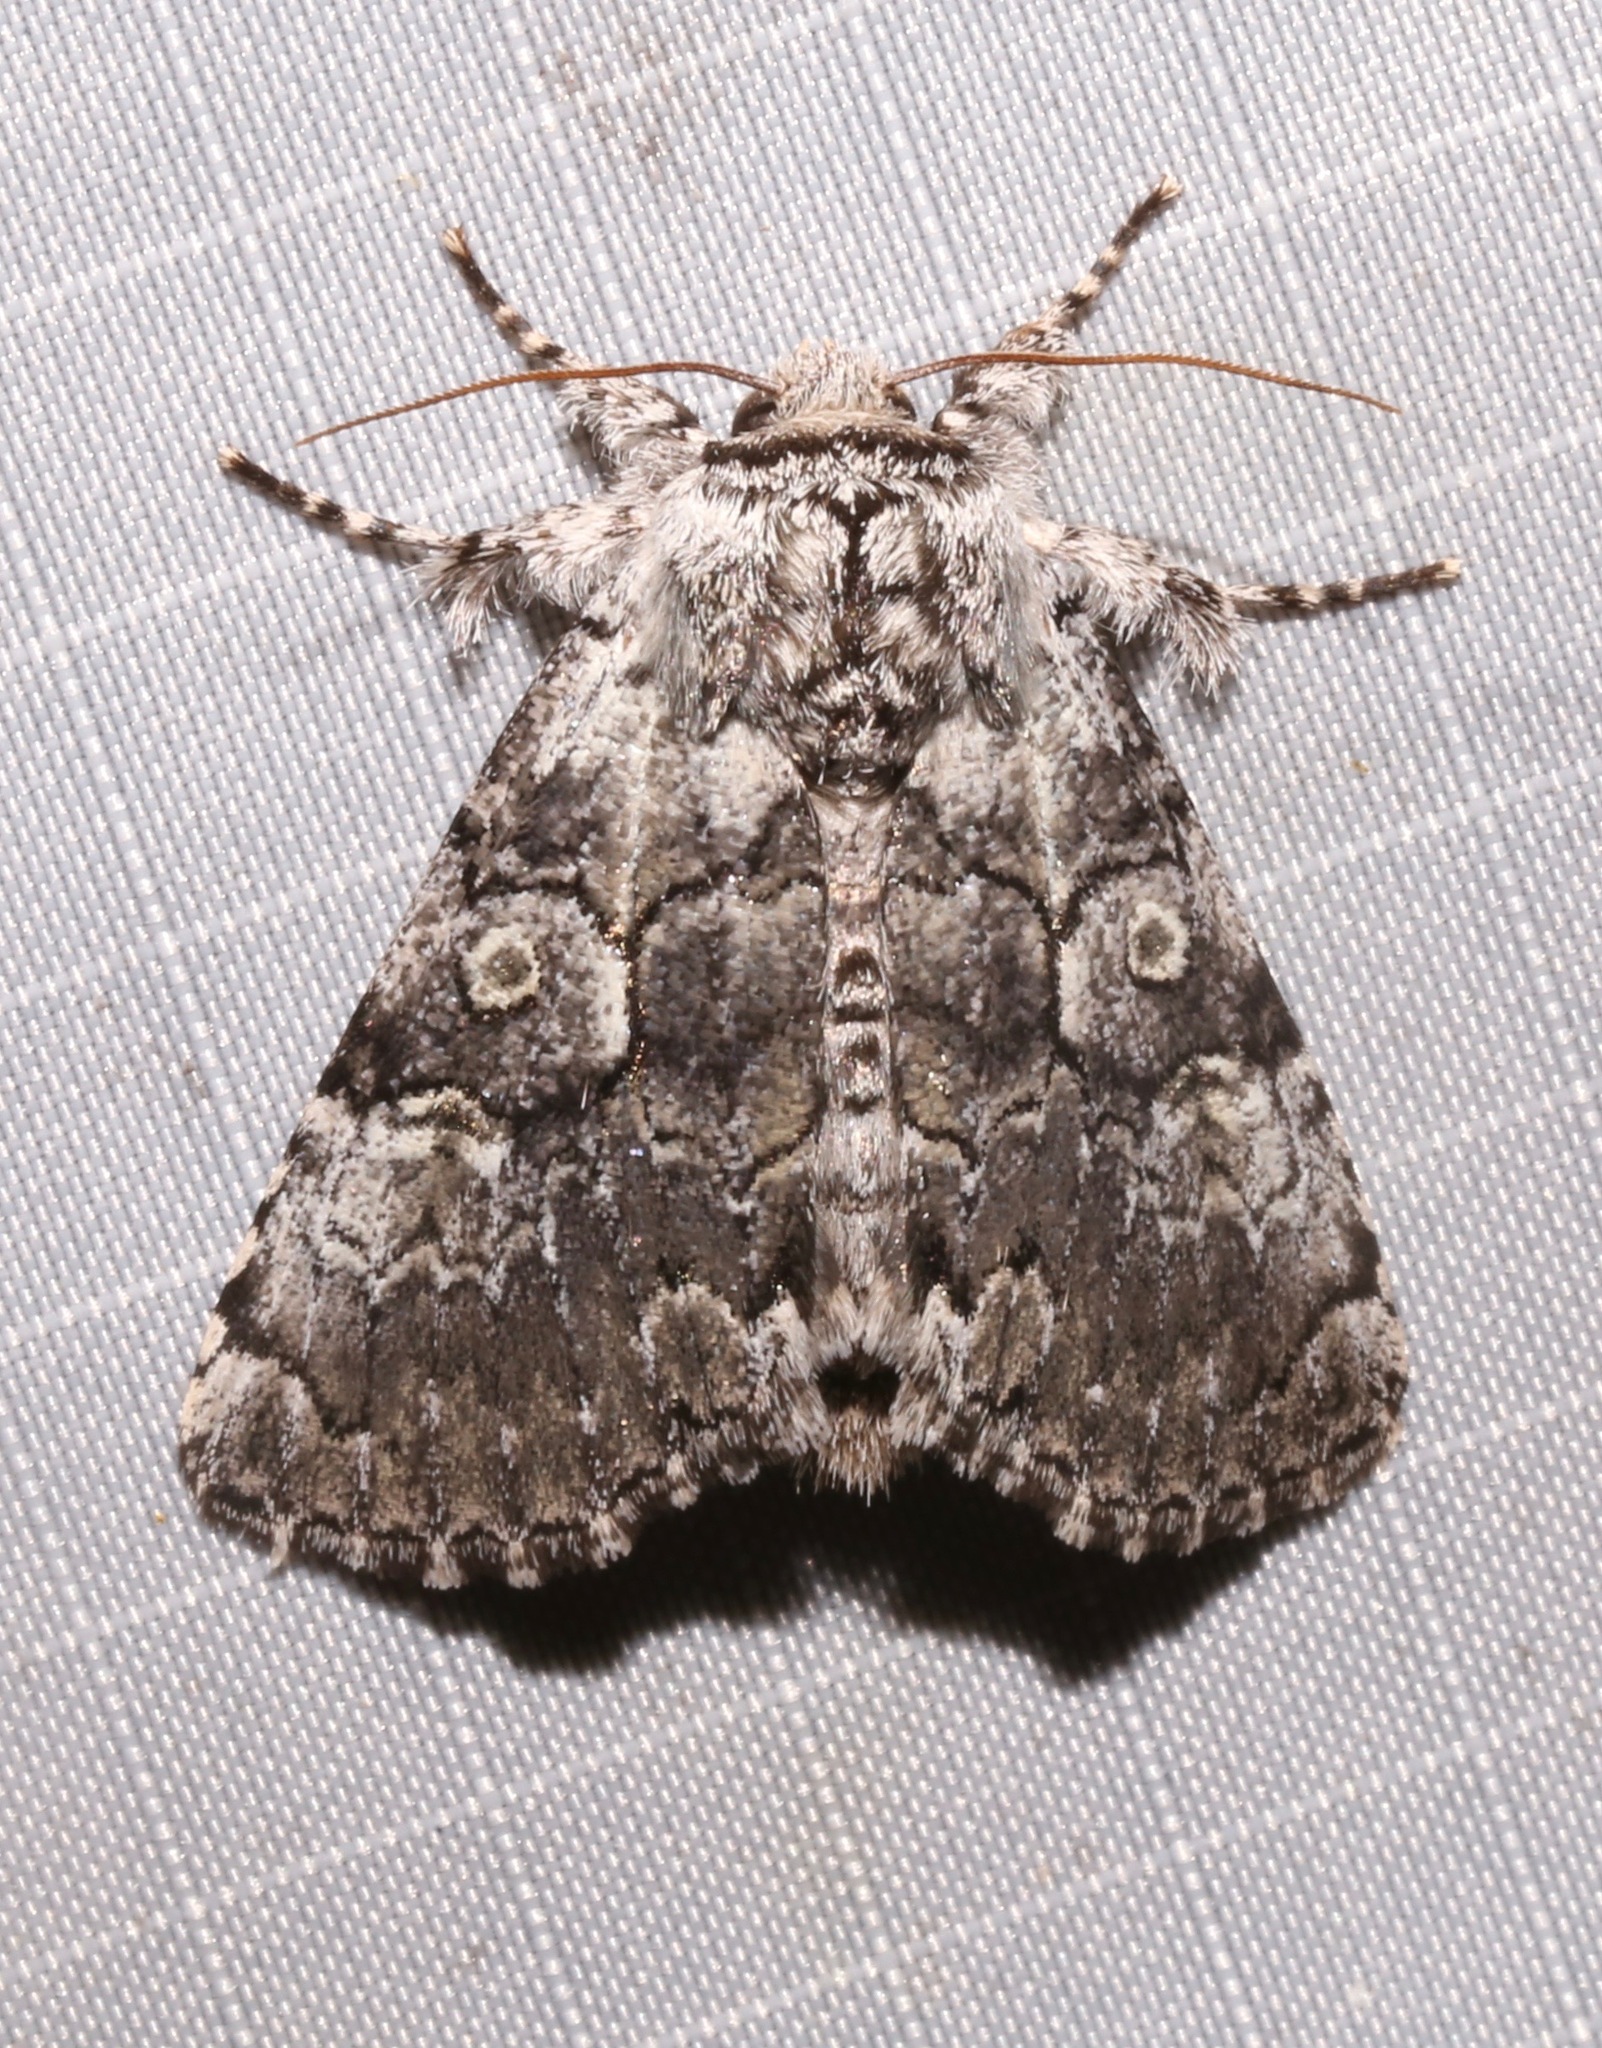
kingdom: Animalia
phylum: Arthropoda
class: Insecta
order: Lepidoptera
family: Noctuidae
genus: Charadra
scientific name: Charadra deridens
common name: Marbled tuffet
